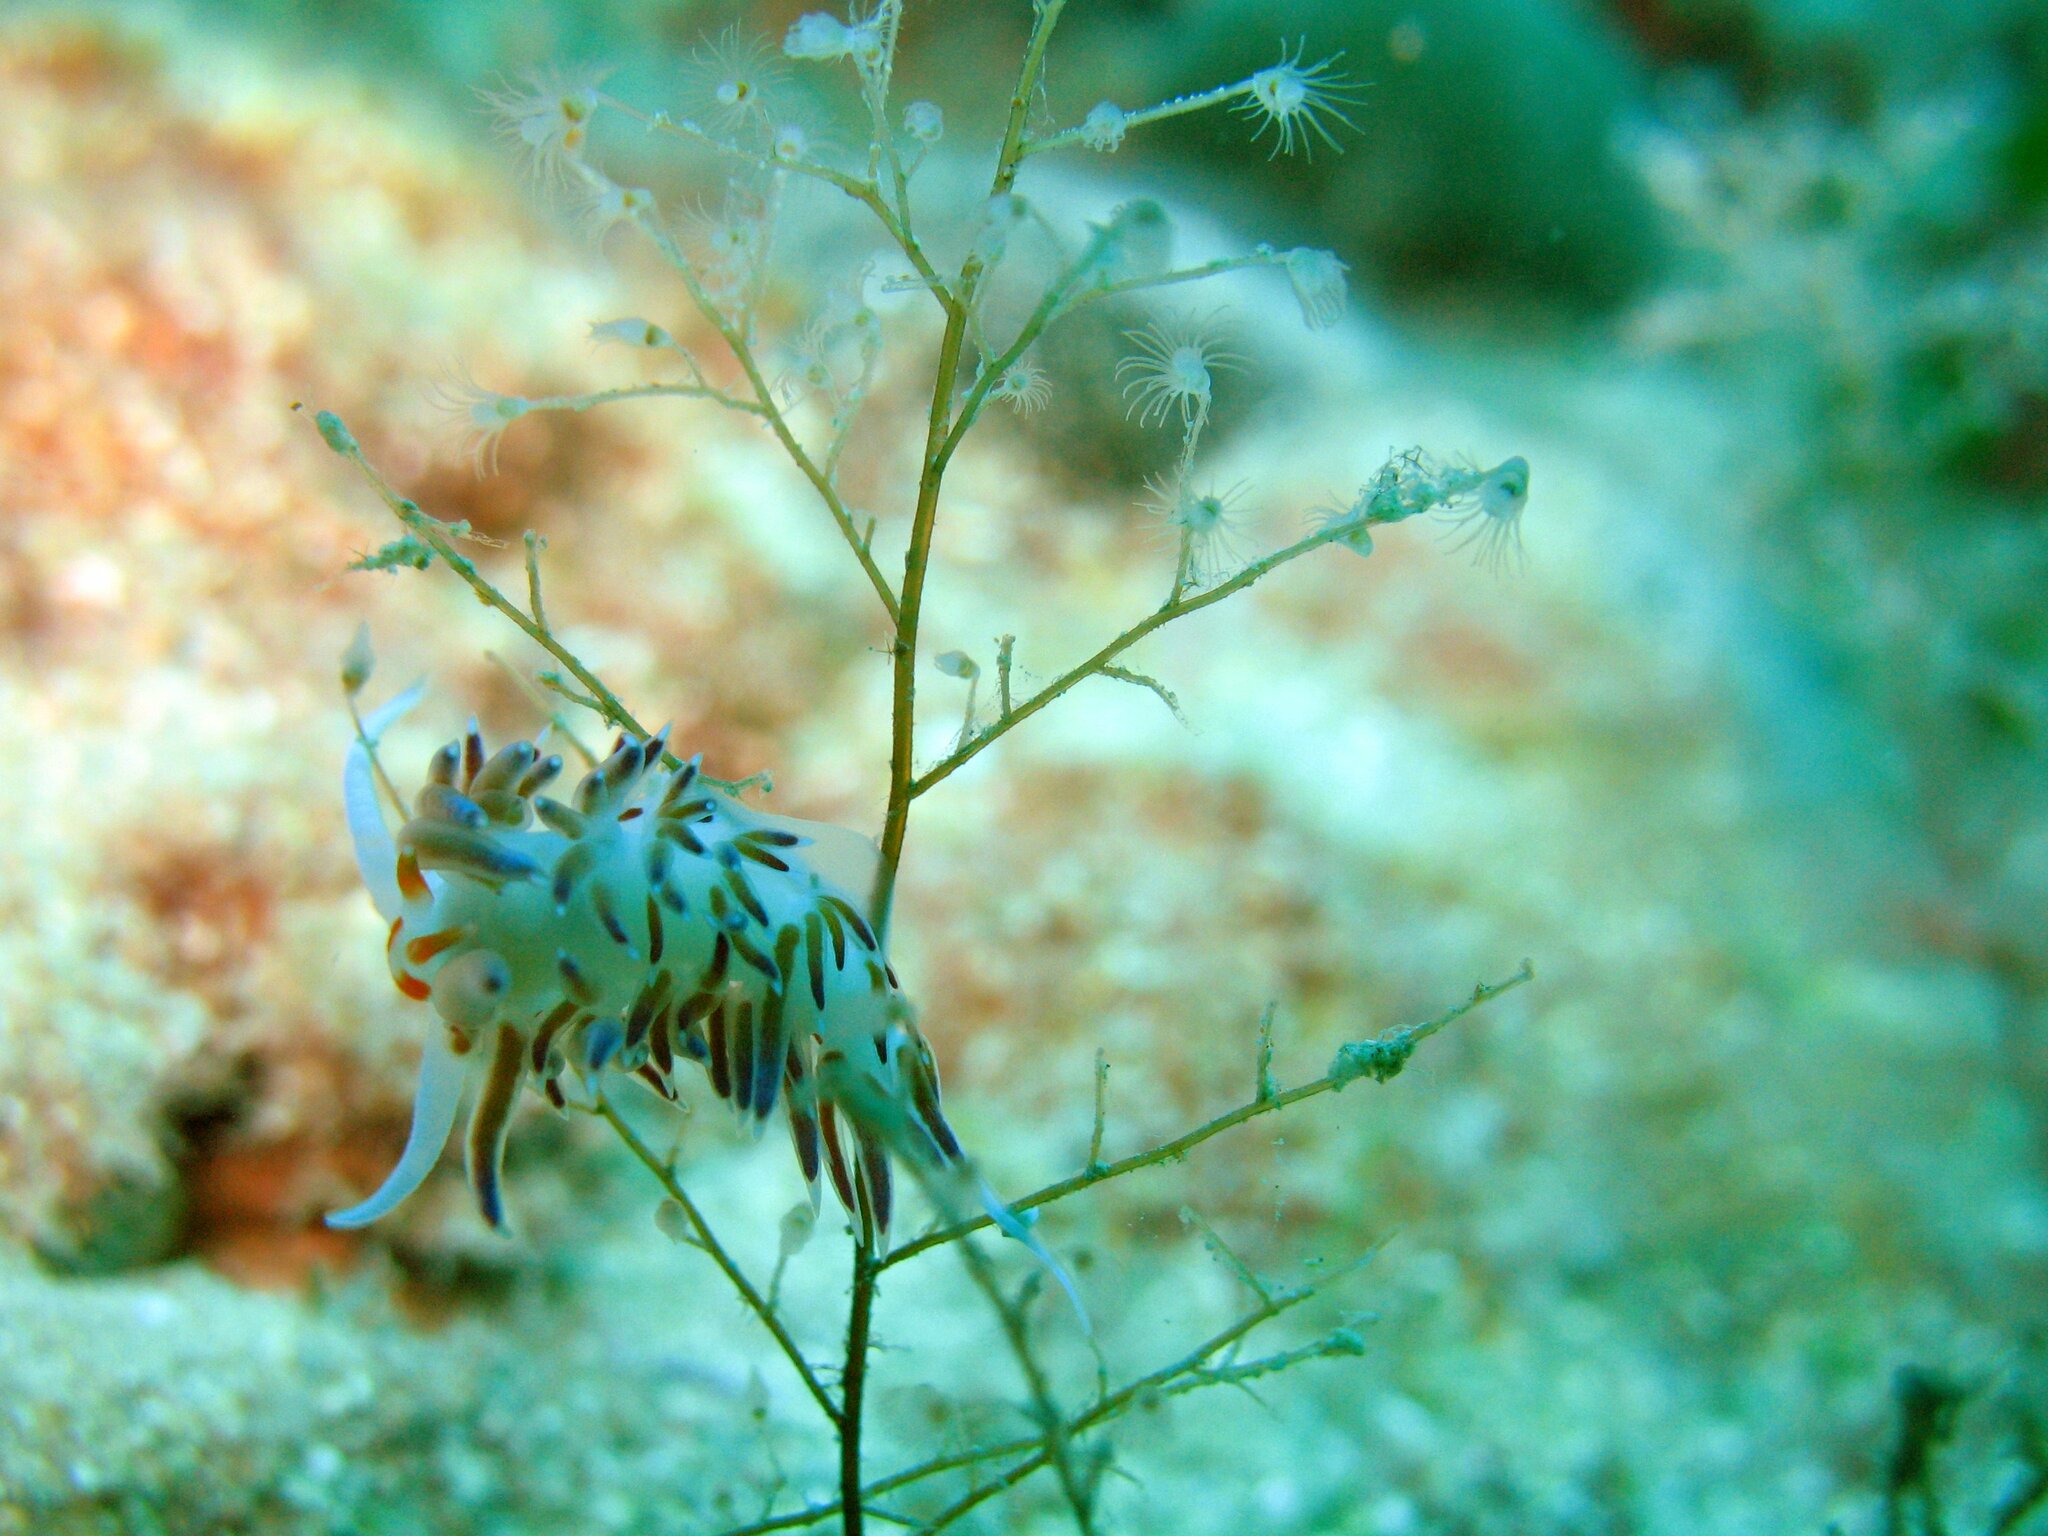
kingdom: Animalia
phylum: Mollusca
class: Gastropoda
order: Nudibranchia
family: Facelinidae
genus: Cratena
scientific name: Cratena peregrina
